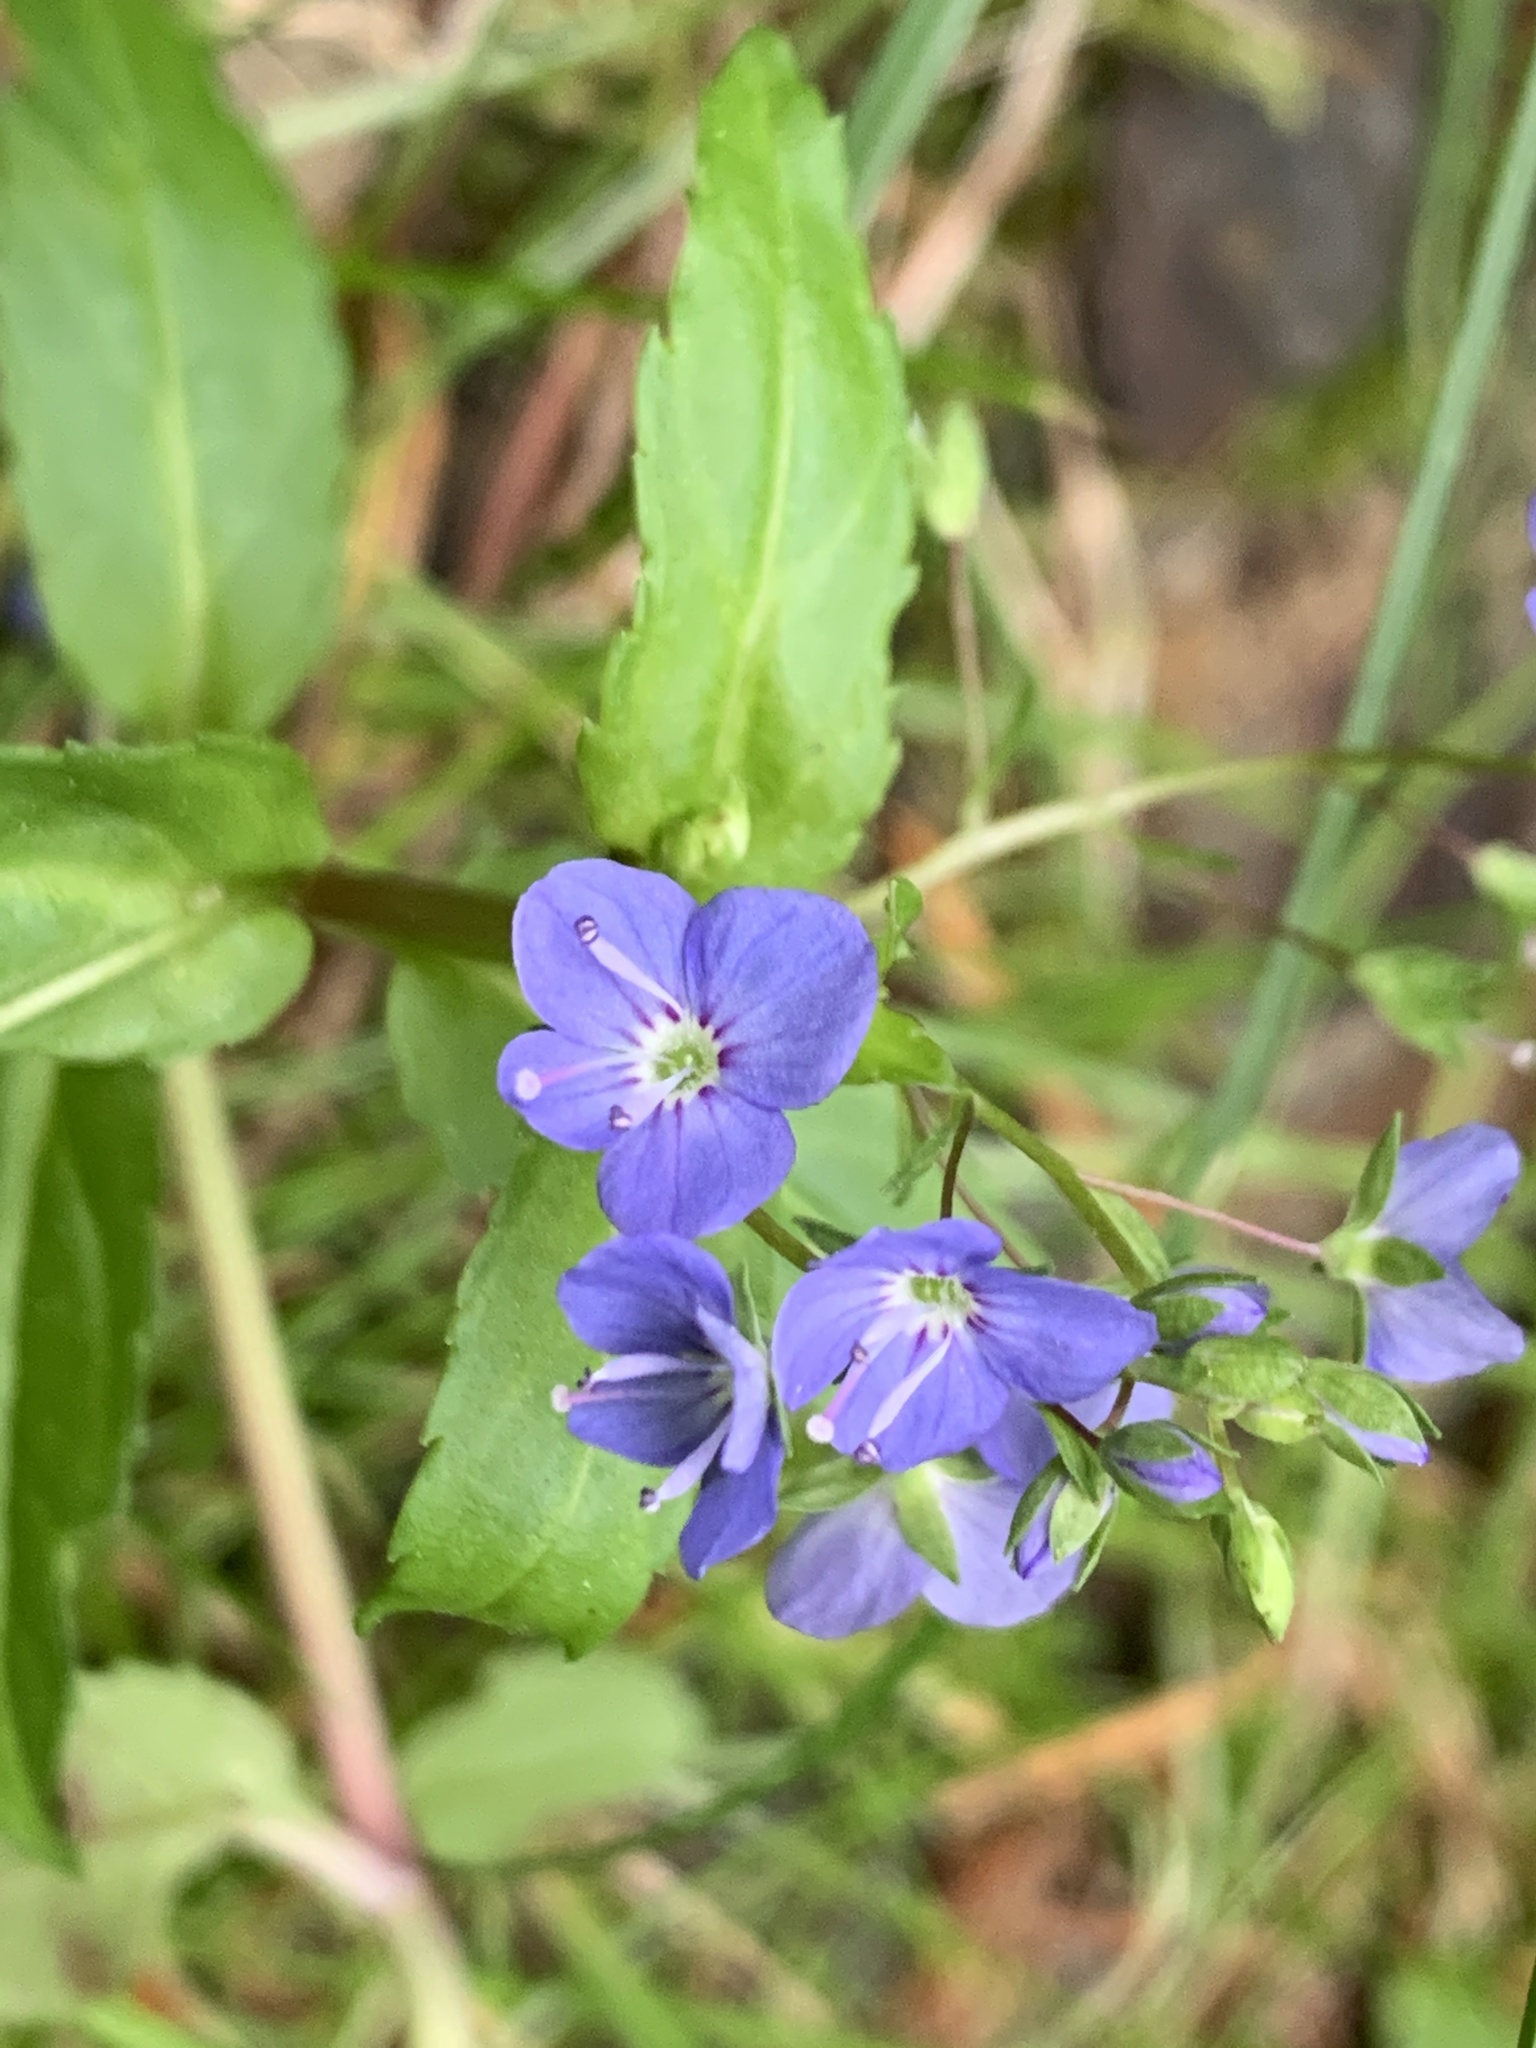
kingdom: Plantae
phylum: Tracheophyta
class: Magnoliopsida
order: Lamiales
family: Plantaginaceae
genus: Veronica
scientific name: Veronica americana
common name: American brooklime
